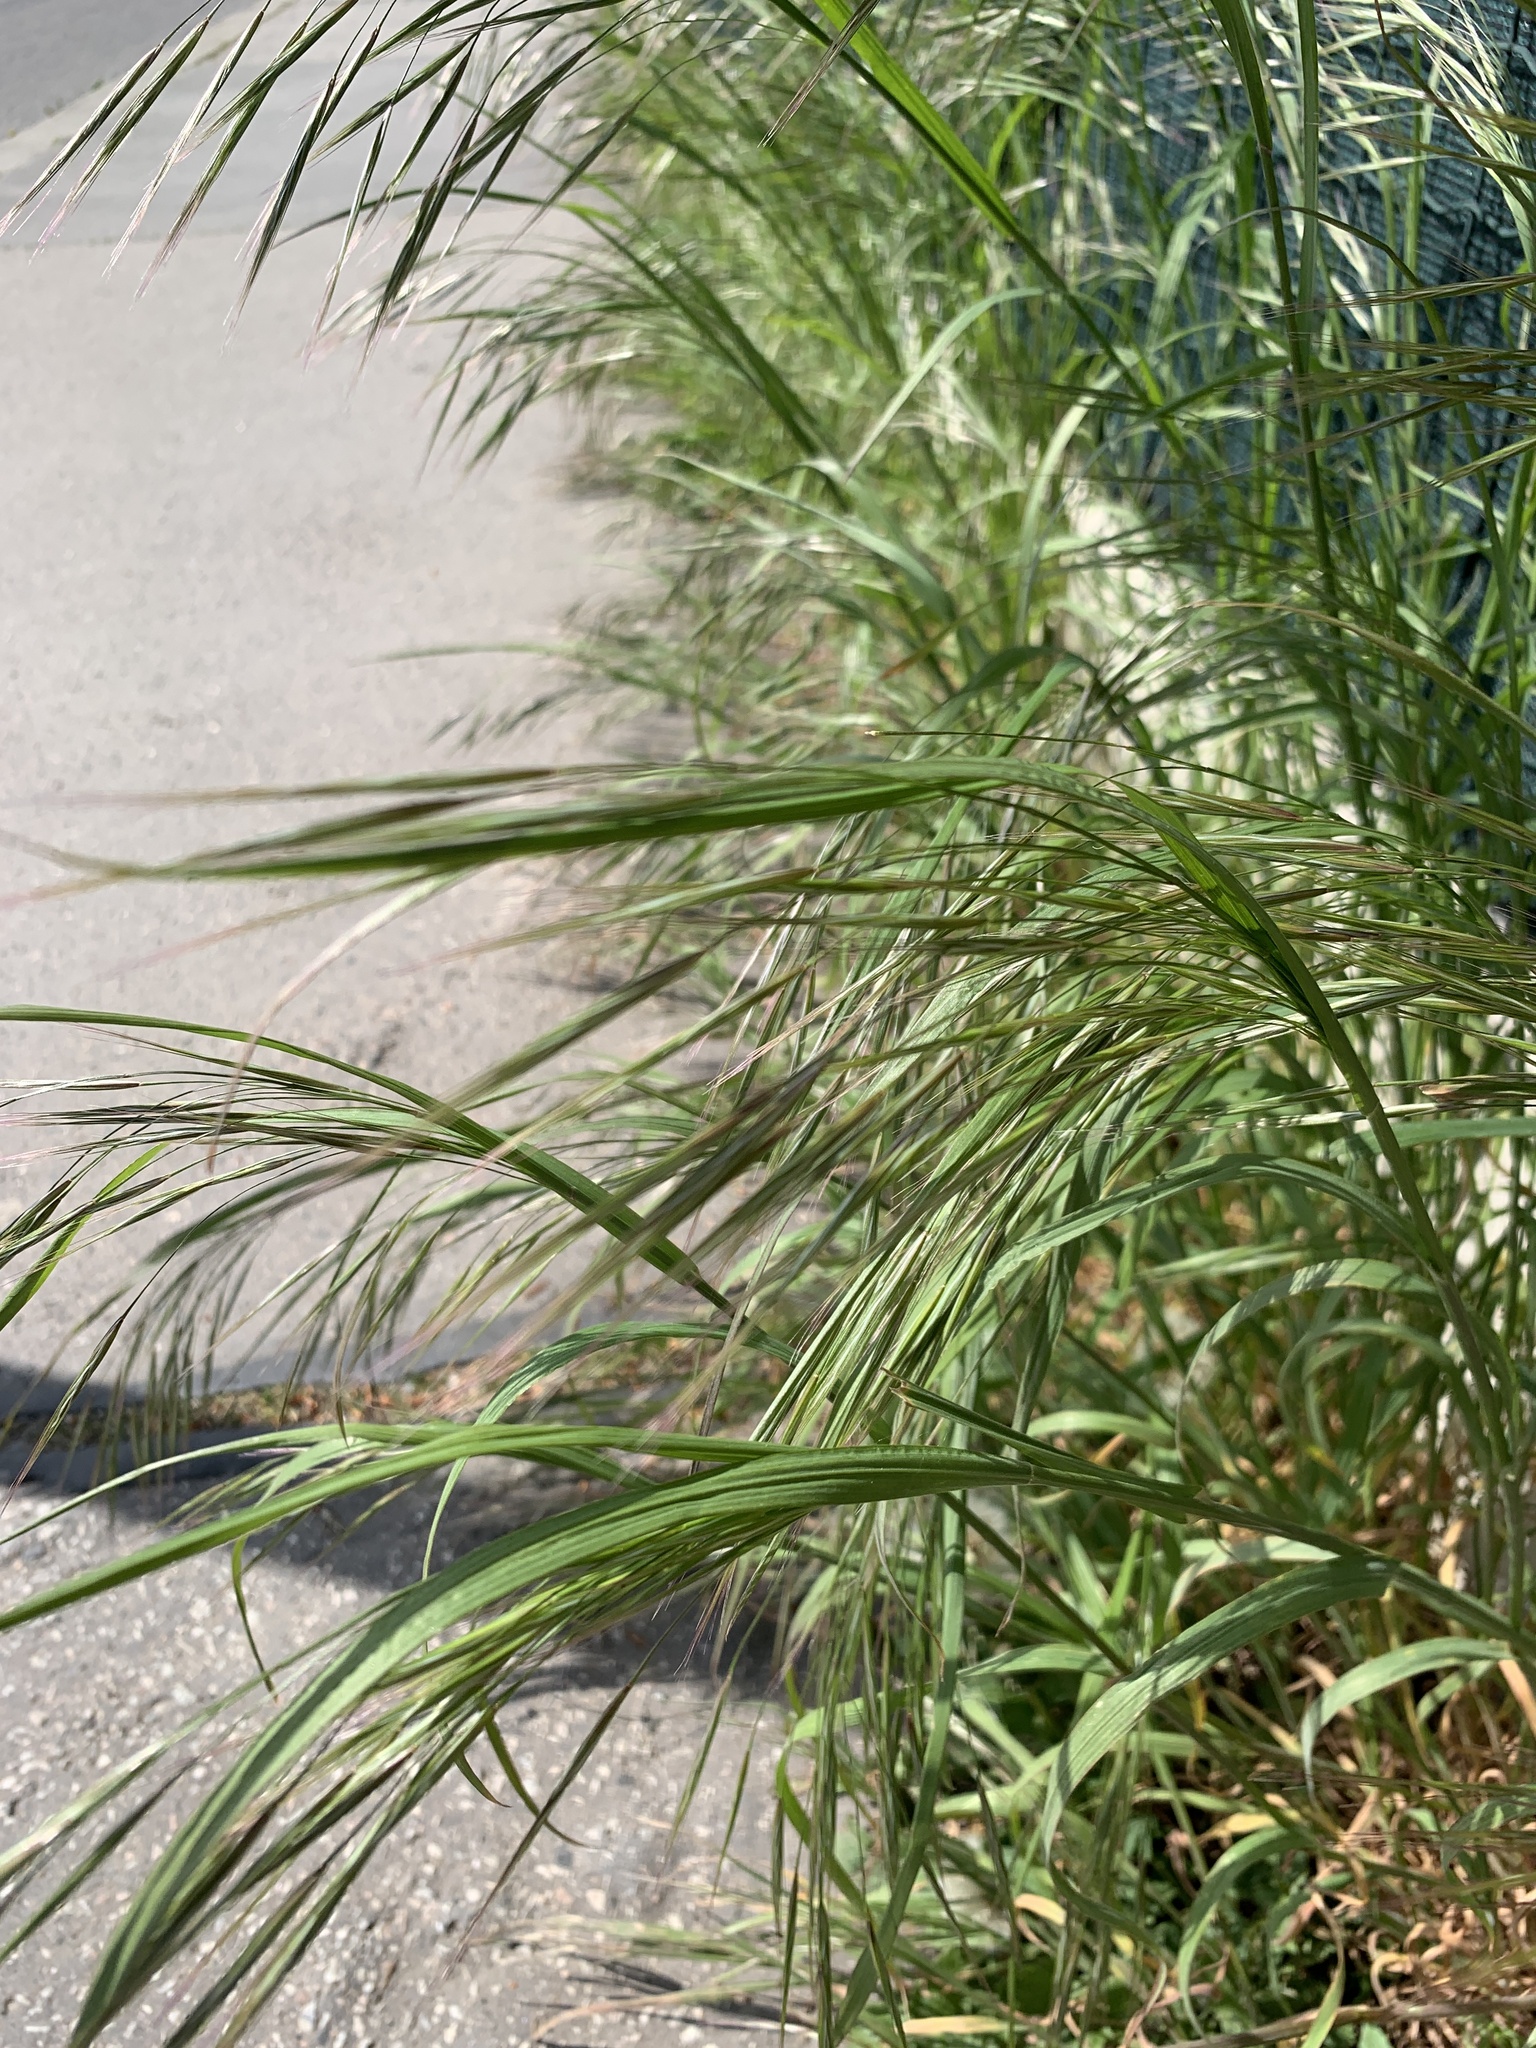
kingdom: Plantae
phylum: Tracheophyta
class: Liliopsida
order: Poales
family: Poaceae
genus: Bromus
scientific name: Bromus sterilis
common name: Poverty brome
